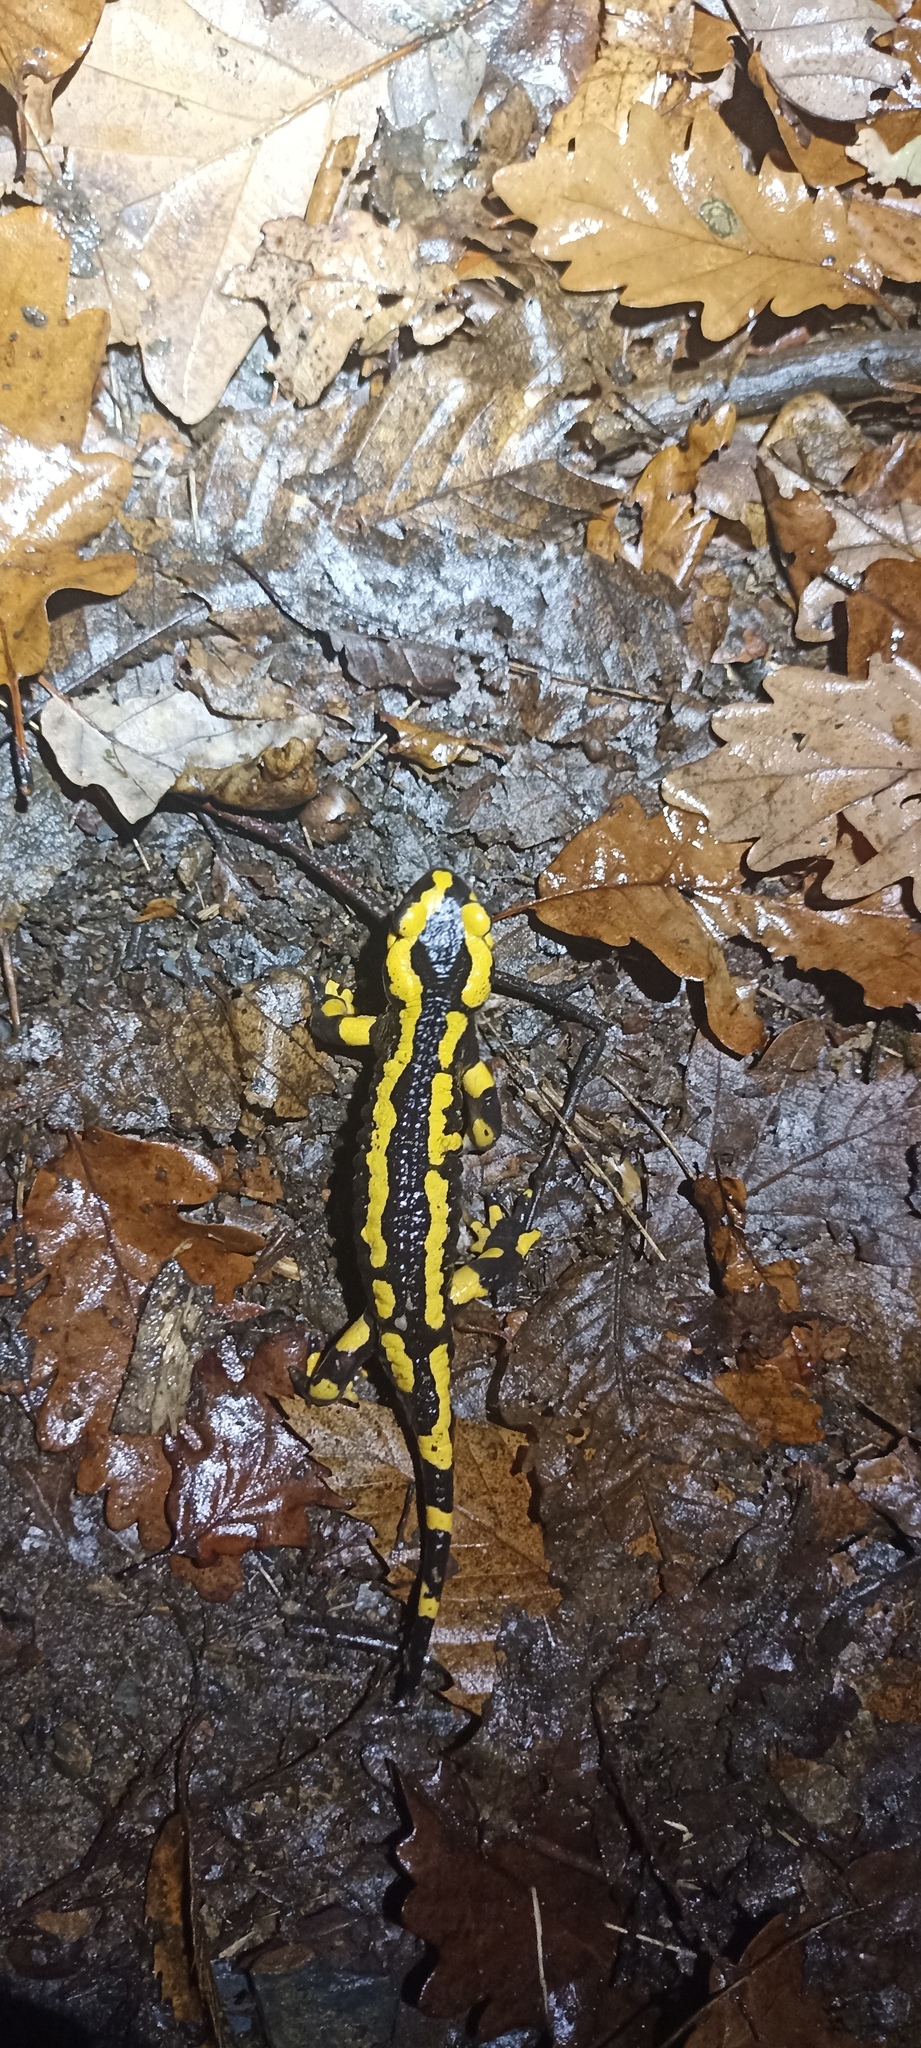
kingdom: Animalia
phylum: Chordata
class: Amphibia
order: Caudata
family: Salamandridae
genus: Salamandra
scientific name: Salamandra salamandra
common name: Fire salamander
